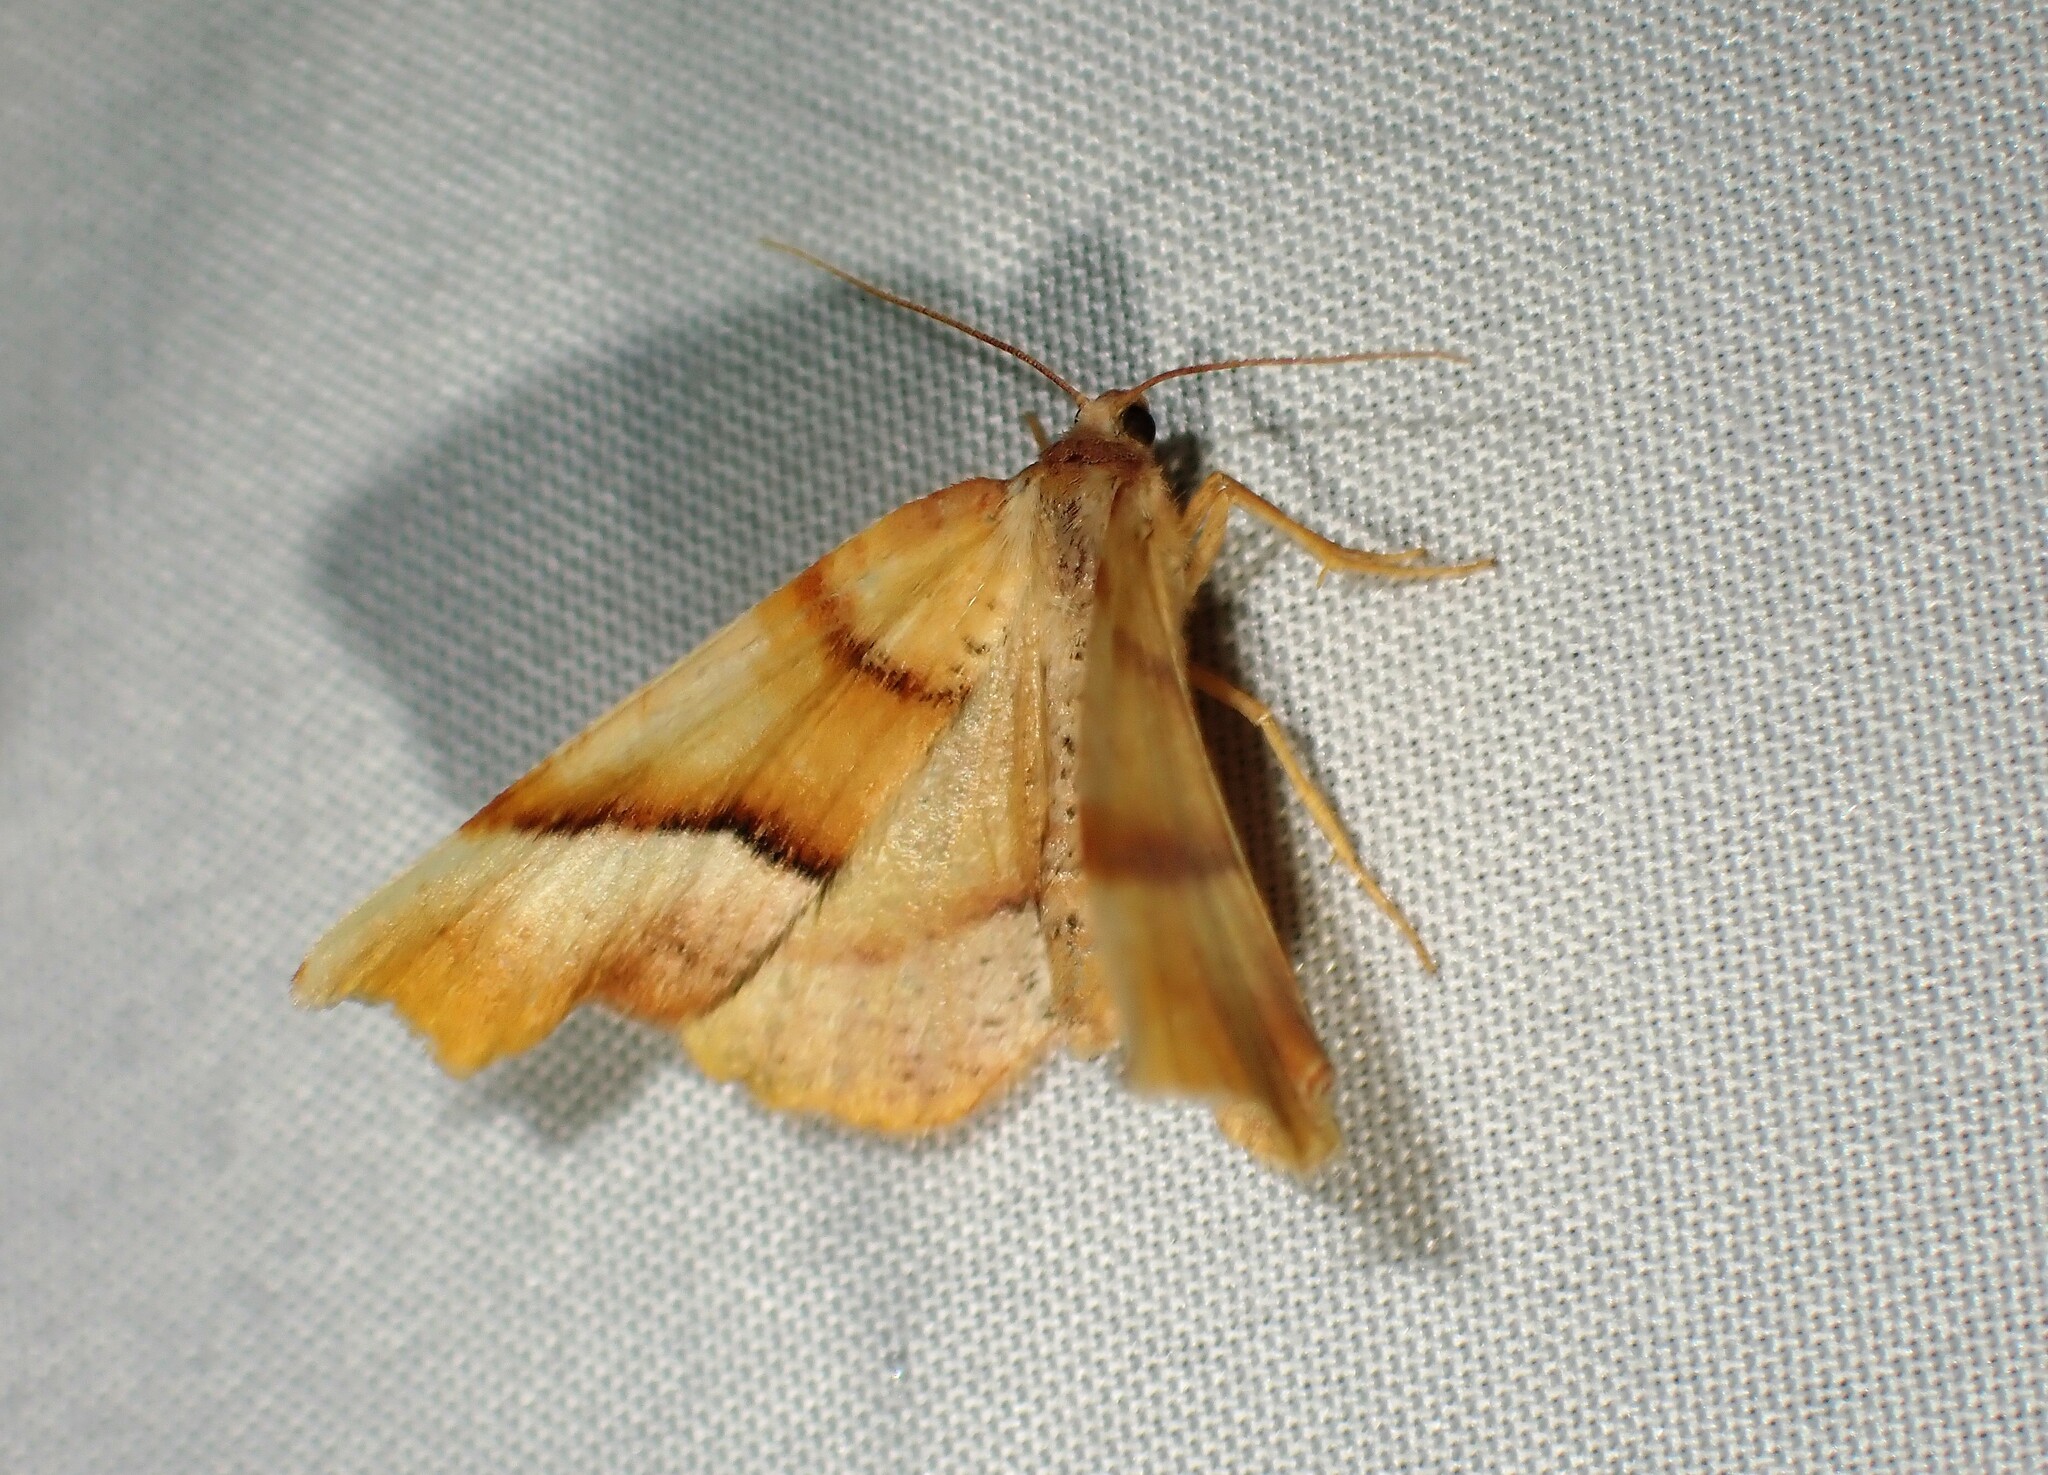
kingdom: Animalia
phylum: Arthropoda
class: Insecta
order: Lepidoptera
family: Geometridae
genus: Plagodis
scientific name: Plagodis phlogosaria
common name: Straight-lined plagodis
